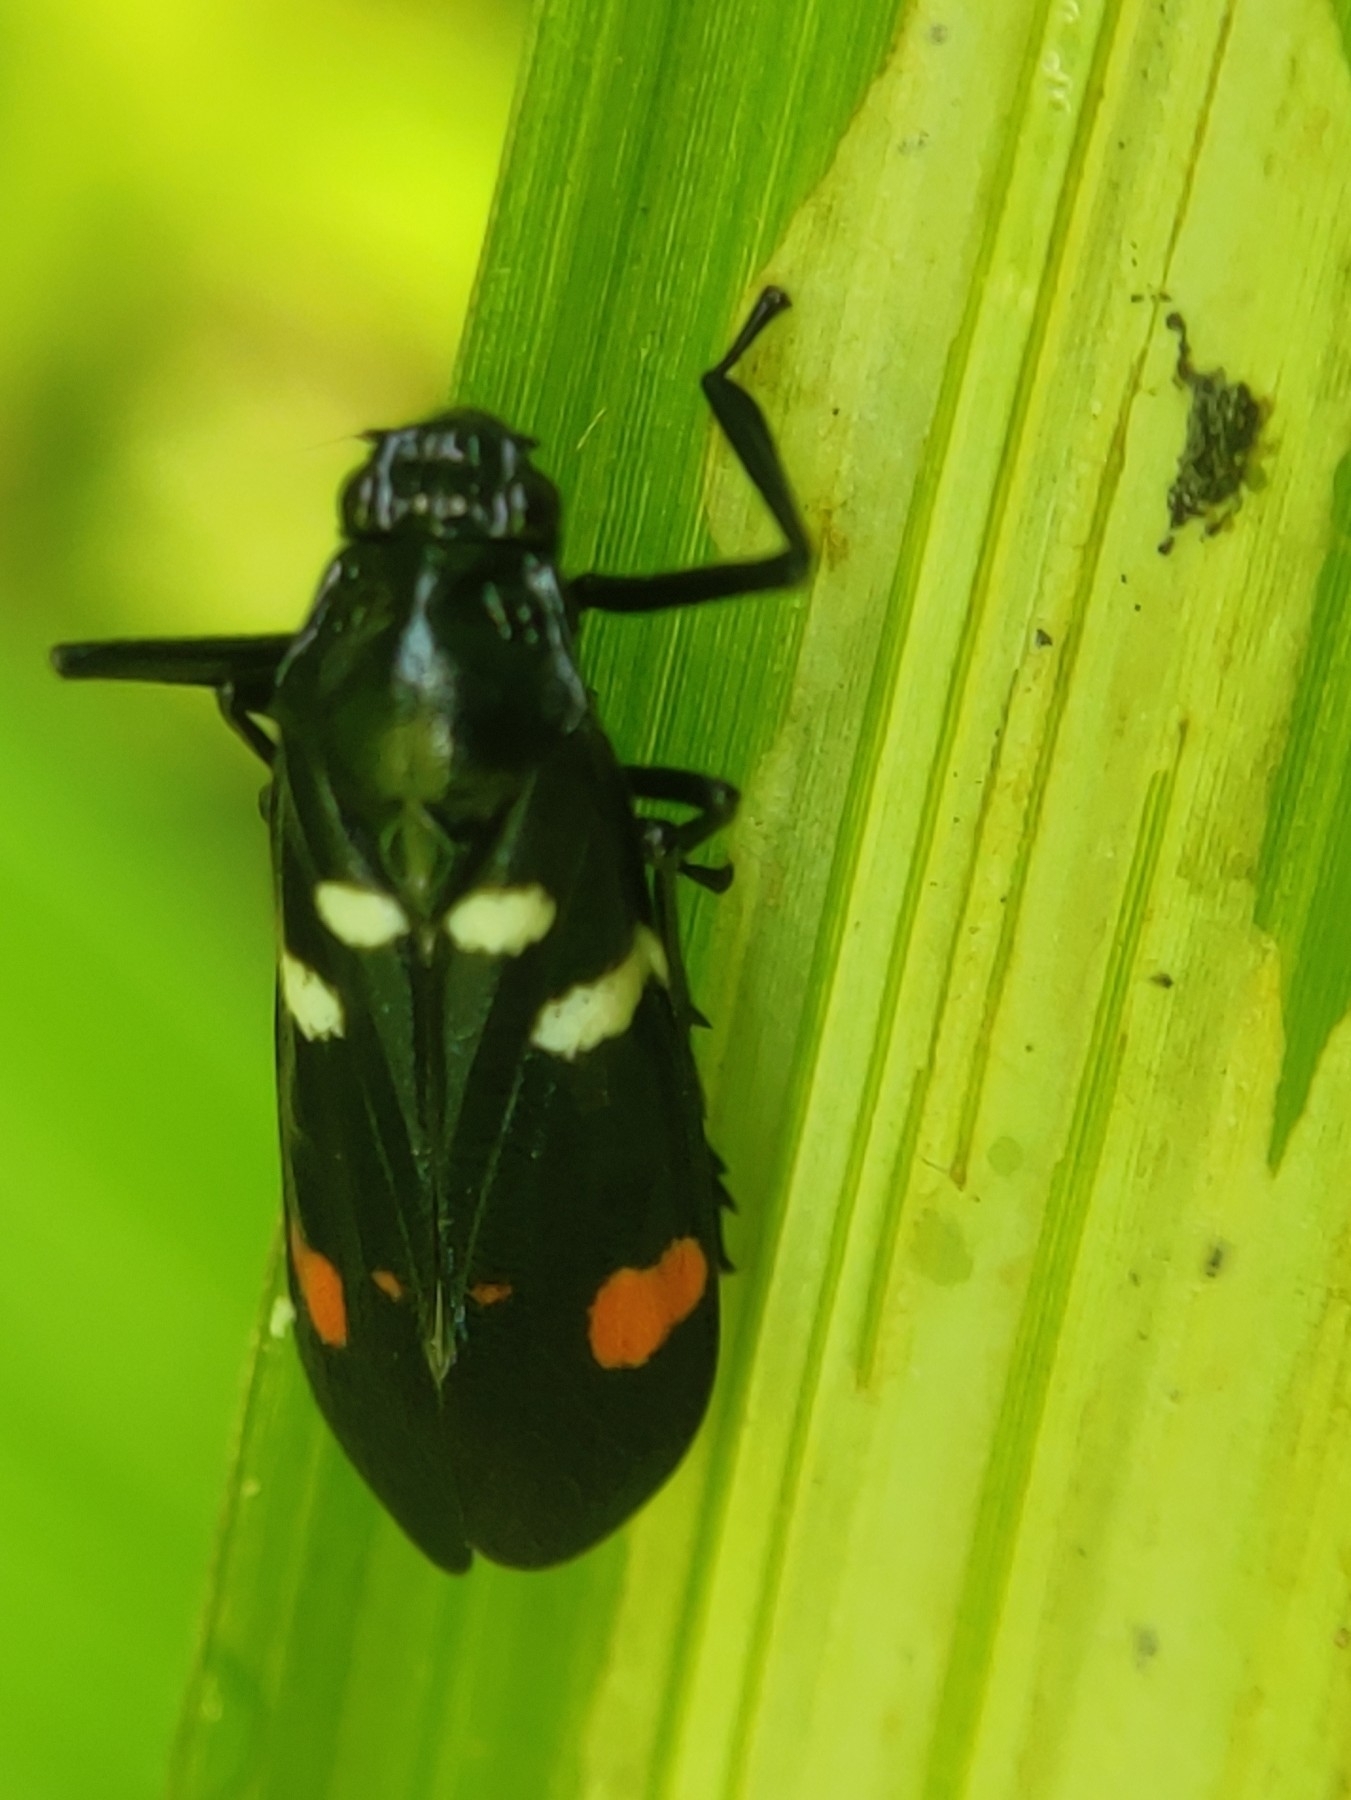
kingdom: Animalia
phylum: Arthropoda
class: Insecta
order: Hemiptera
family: Cercopidae
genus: Callitettix
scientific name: Callitettix versicolor
